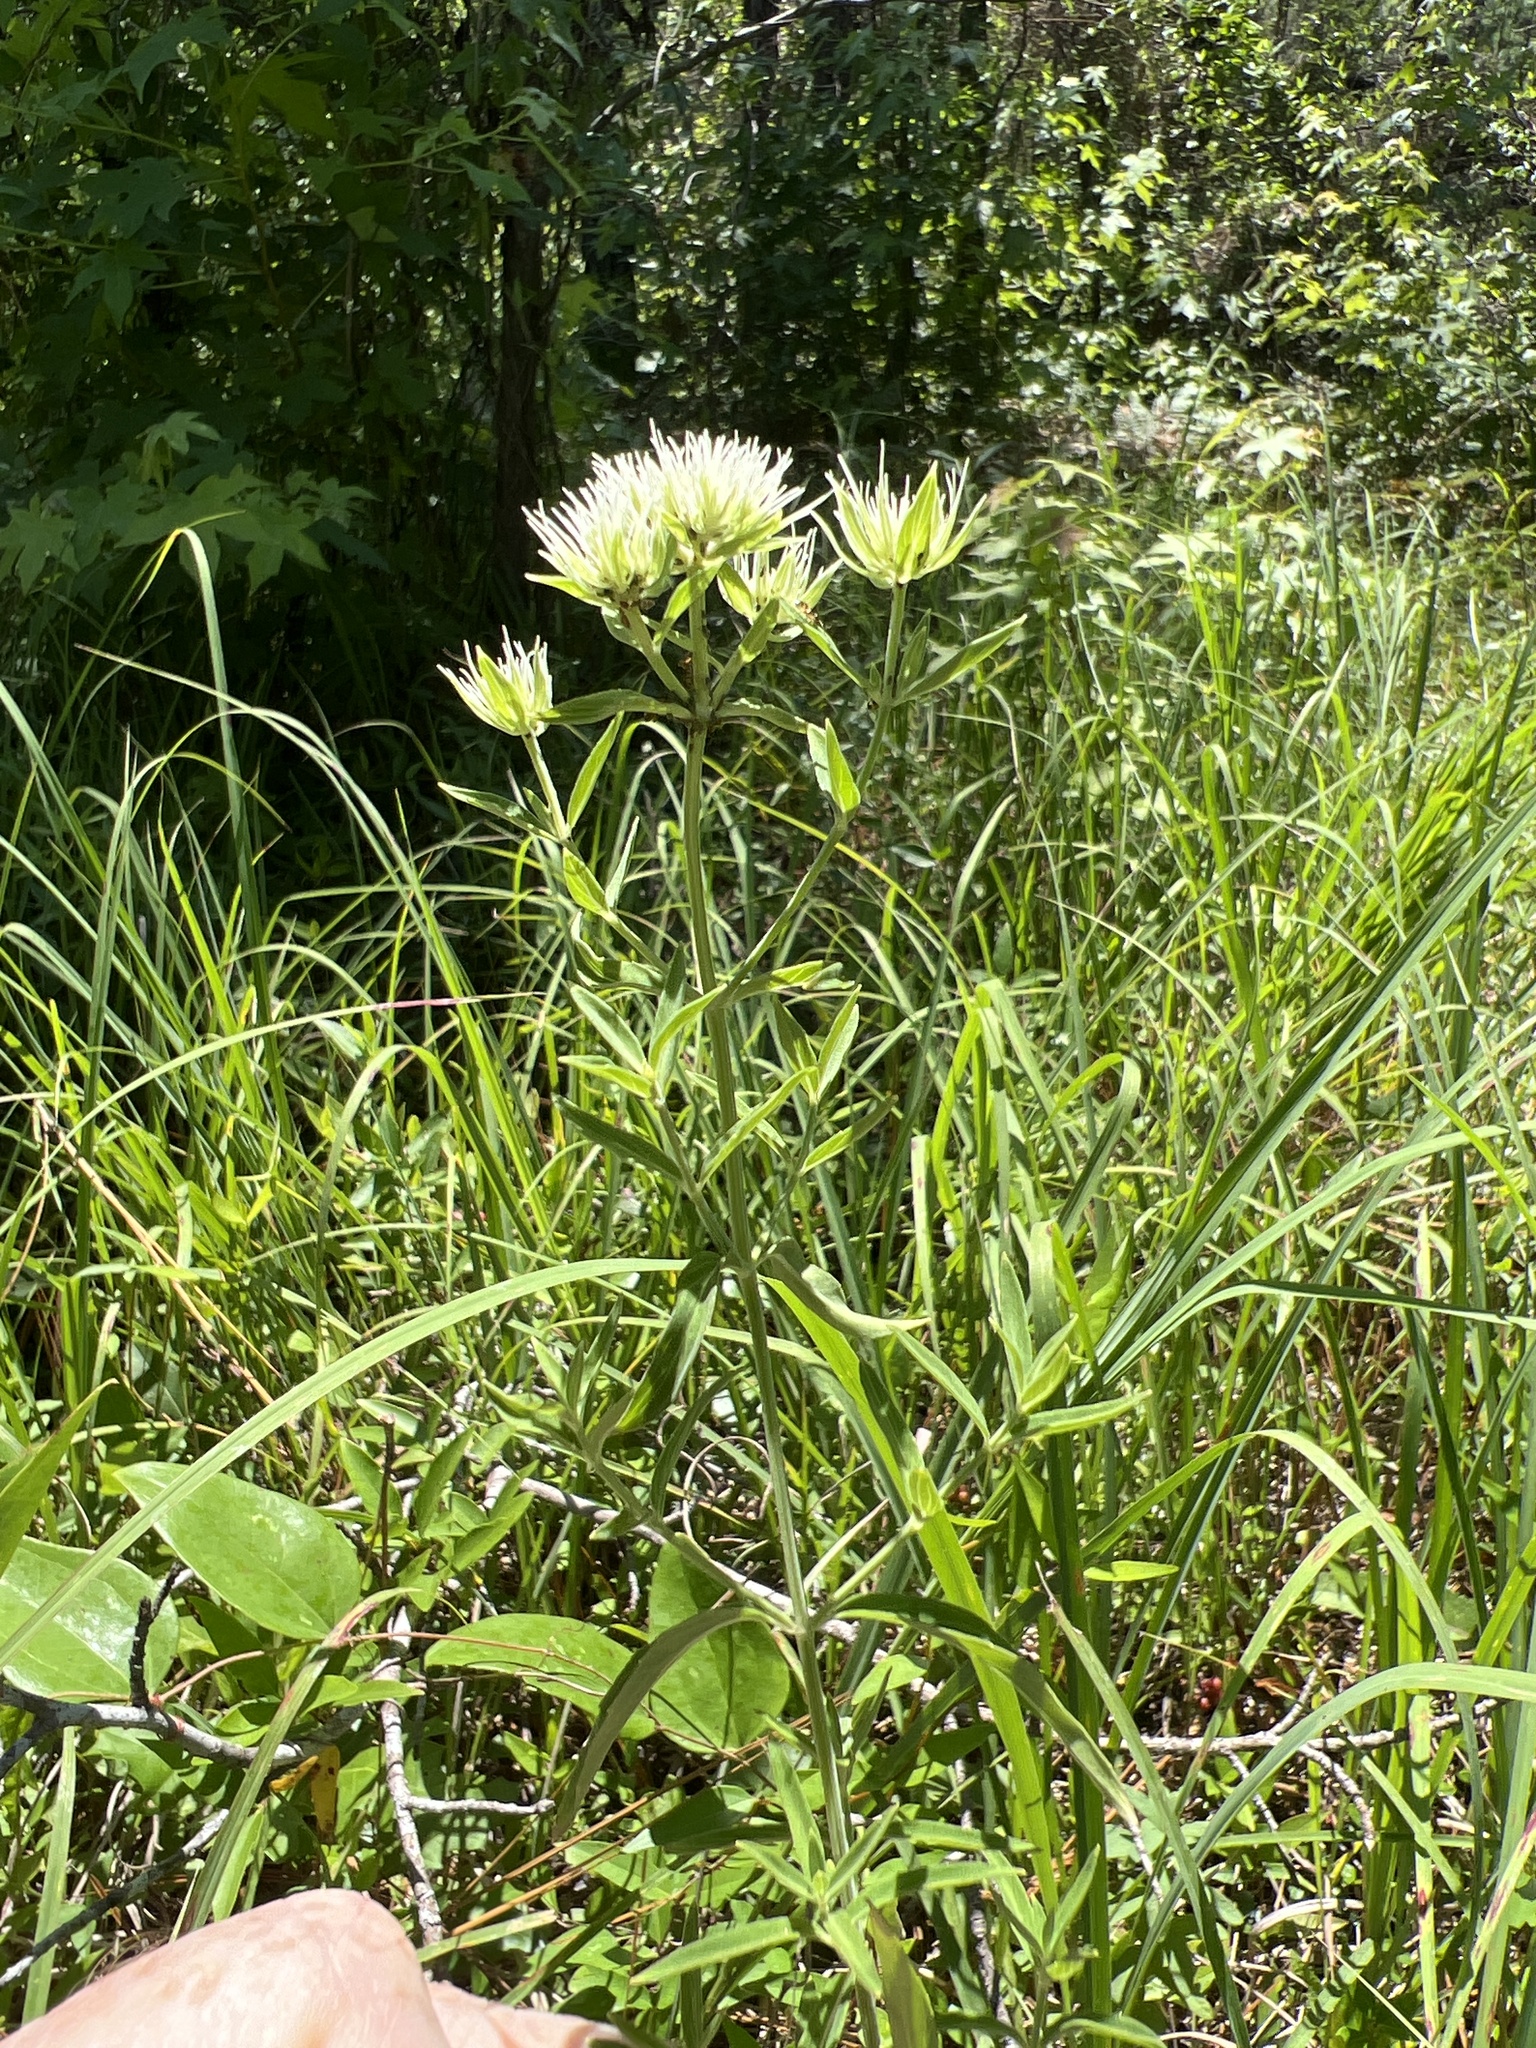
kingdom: Plantae
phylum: Tracheophyta
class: Magnoliopsida
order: Lamiales
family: Lamiaceae
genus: Pycnanthemum
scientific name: Pycnanthemum flexuosum
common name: Appalachian mountain-mint
